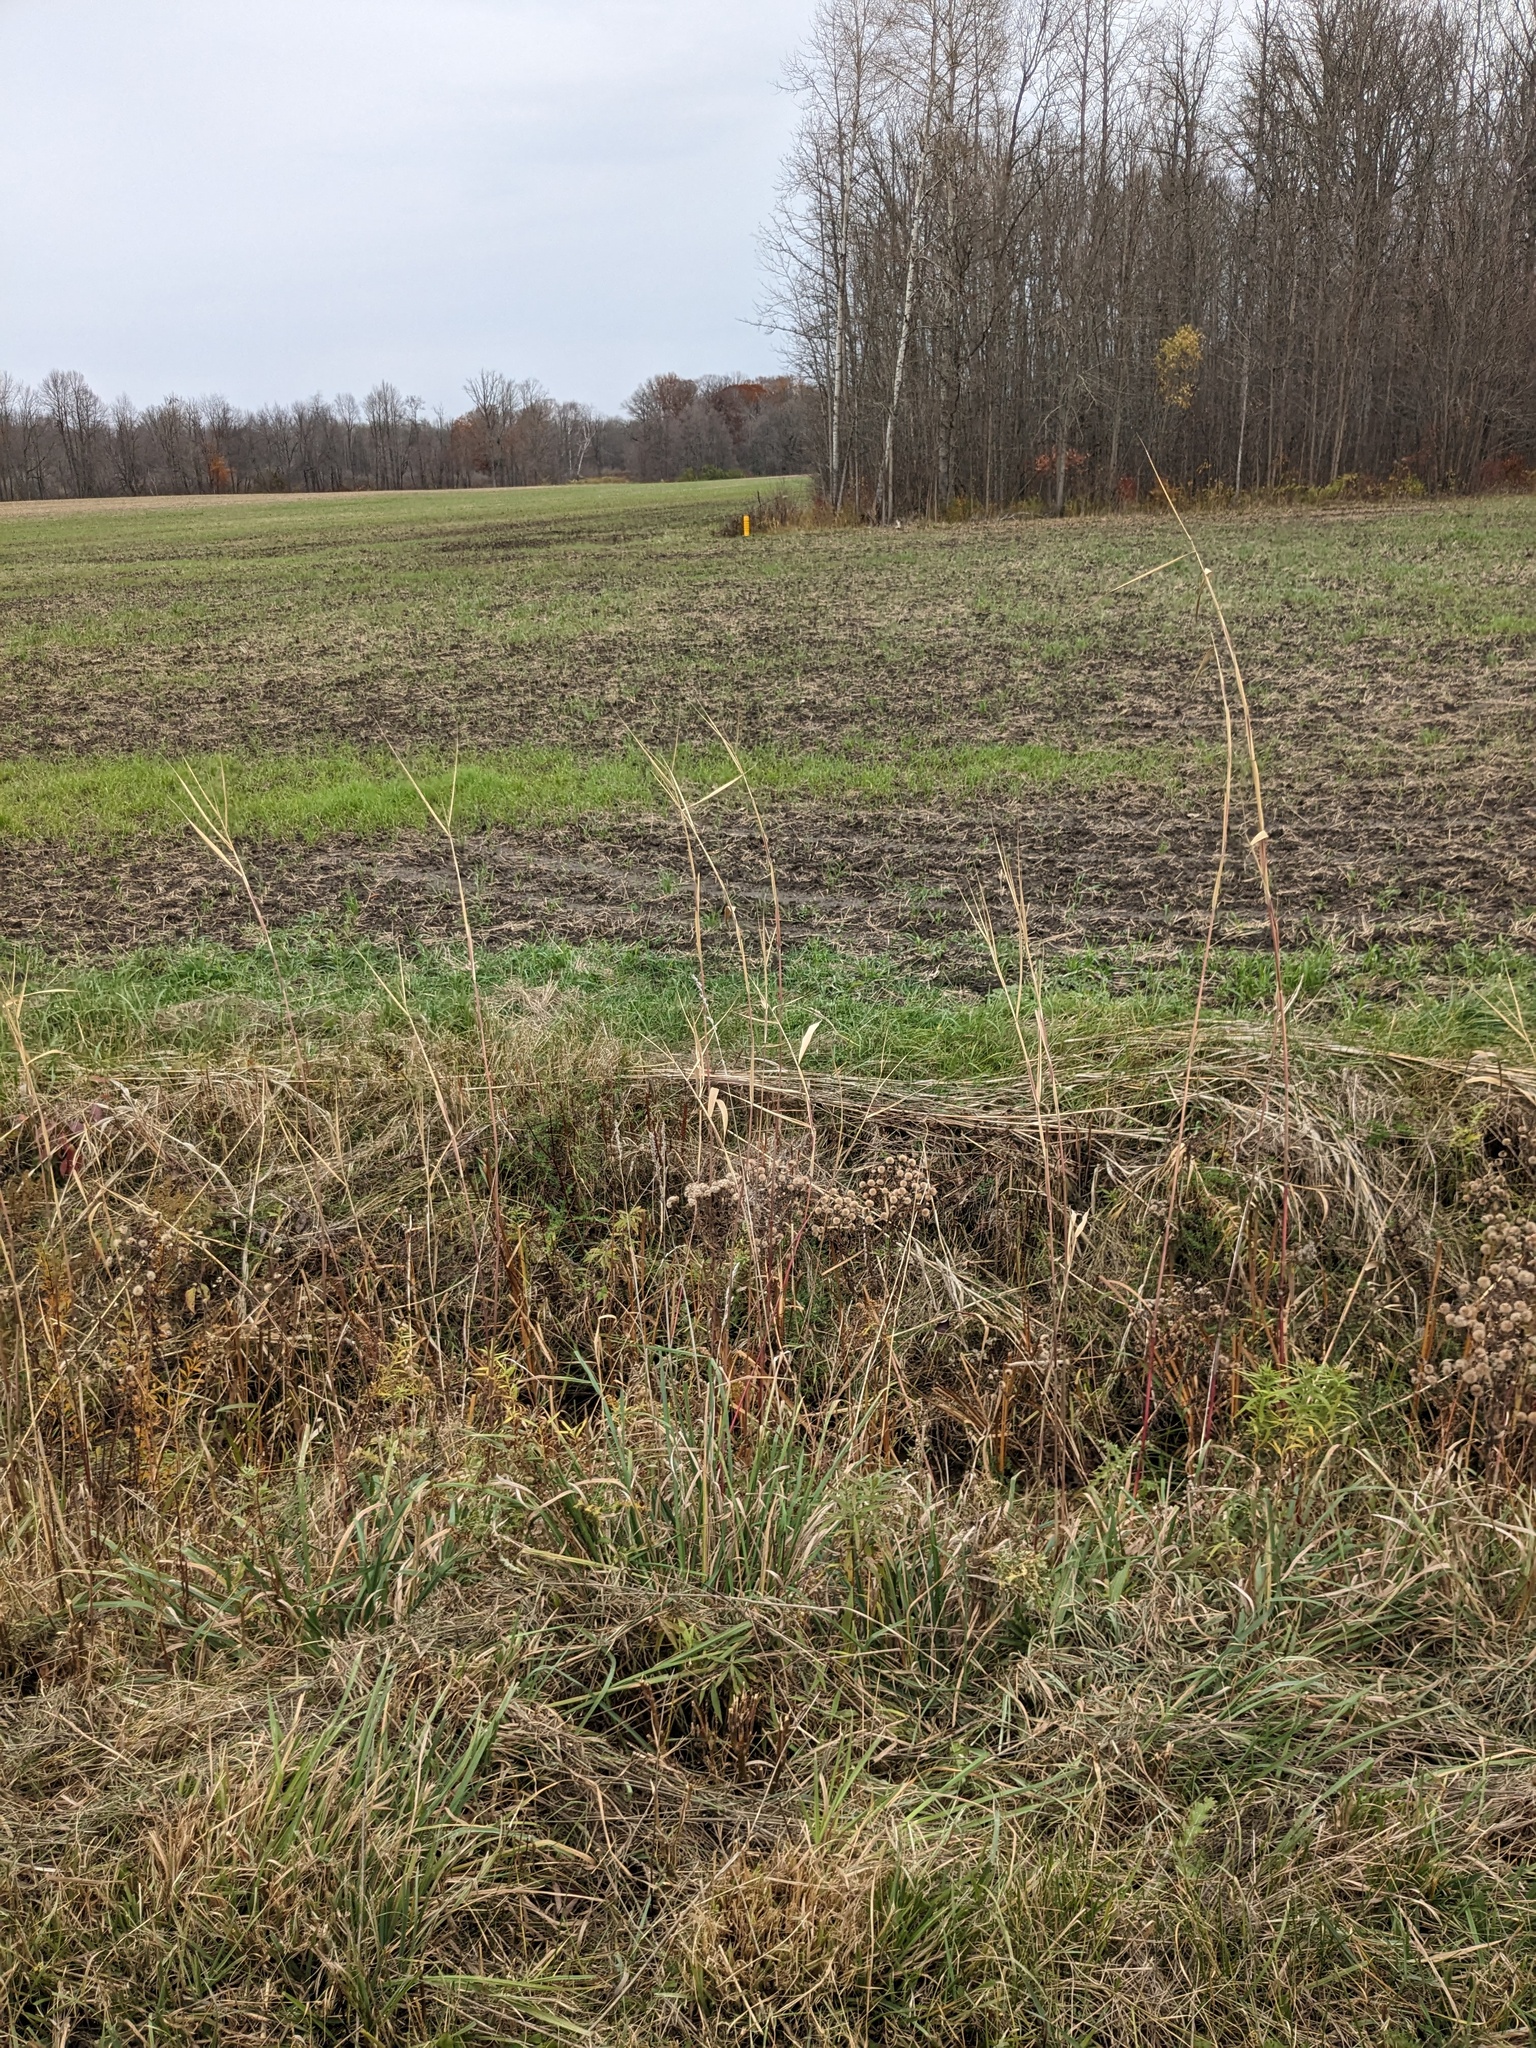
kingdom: Plantae
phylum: Tracheophyta
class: Liliopsida
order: Poales
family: Poaceae
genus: Phragmites
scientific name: Phragmites australis
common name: Common reed
